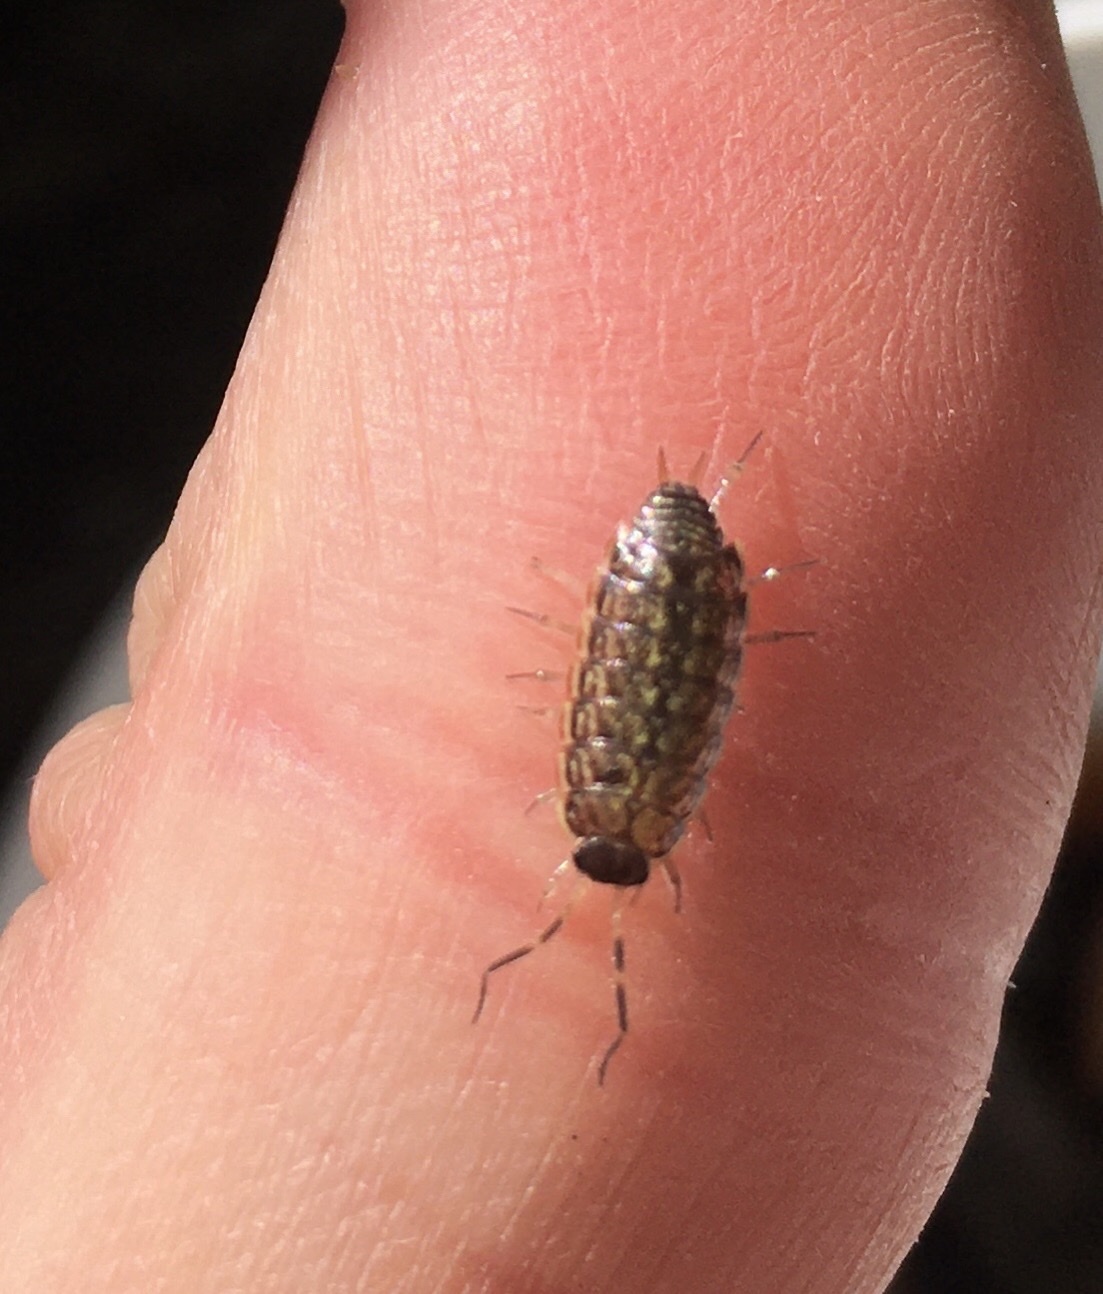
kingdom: Animalia
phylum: Arthropoda
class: Malacostraca
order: Isopoda
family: Philosciidae
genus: Philoscia
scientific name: Philoscia muscorum
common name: Common striped woodlouse
